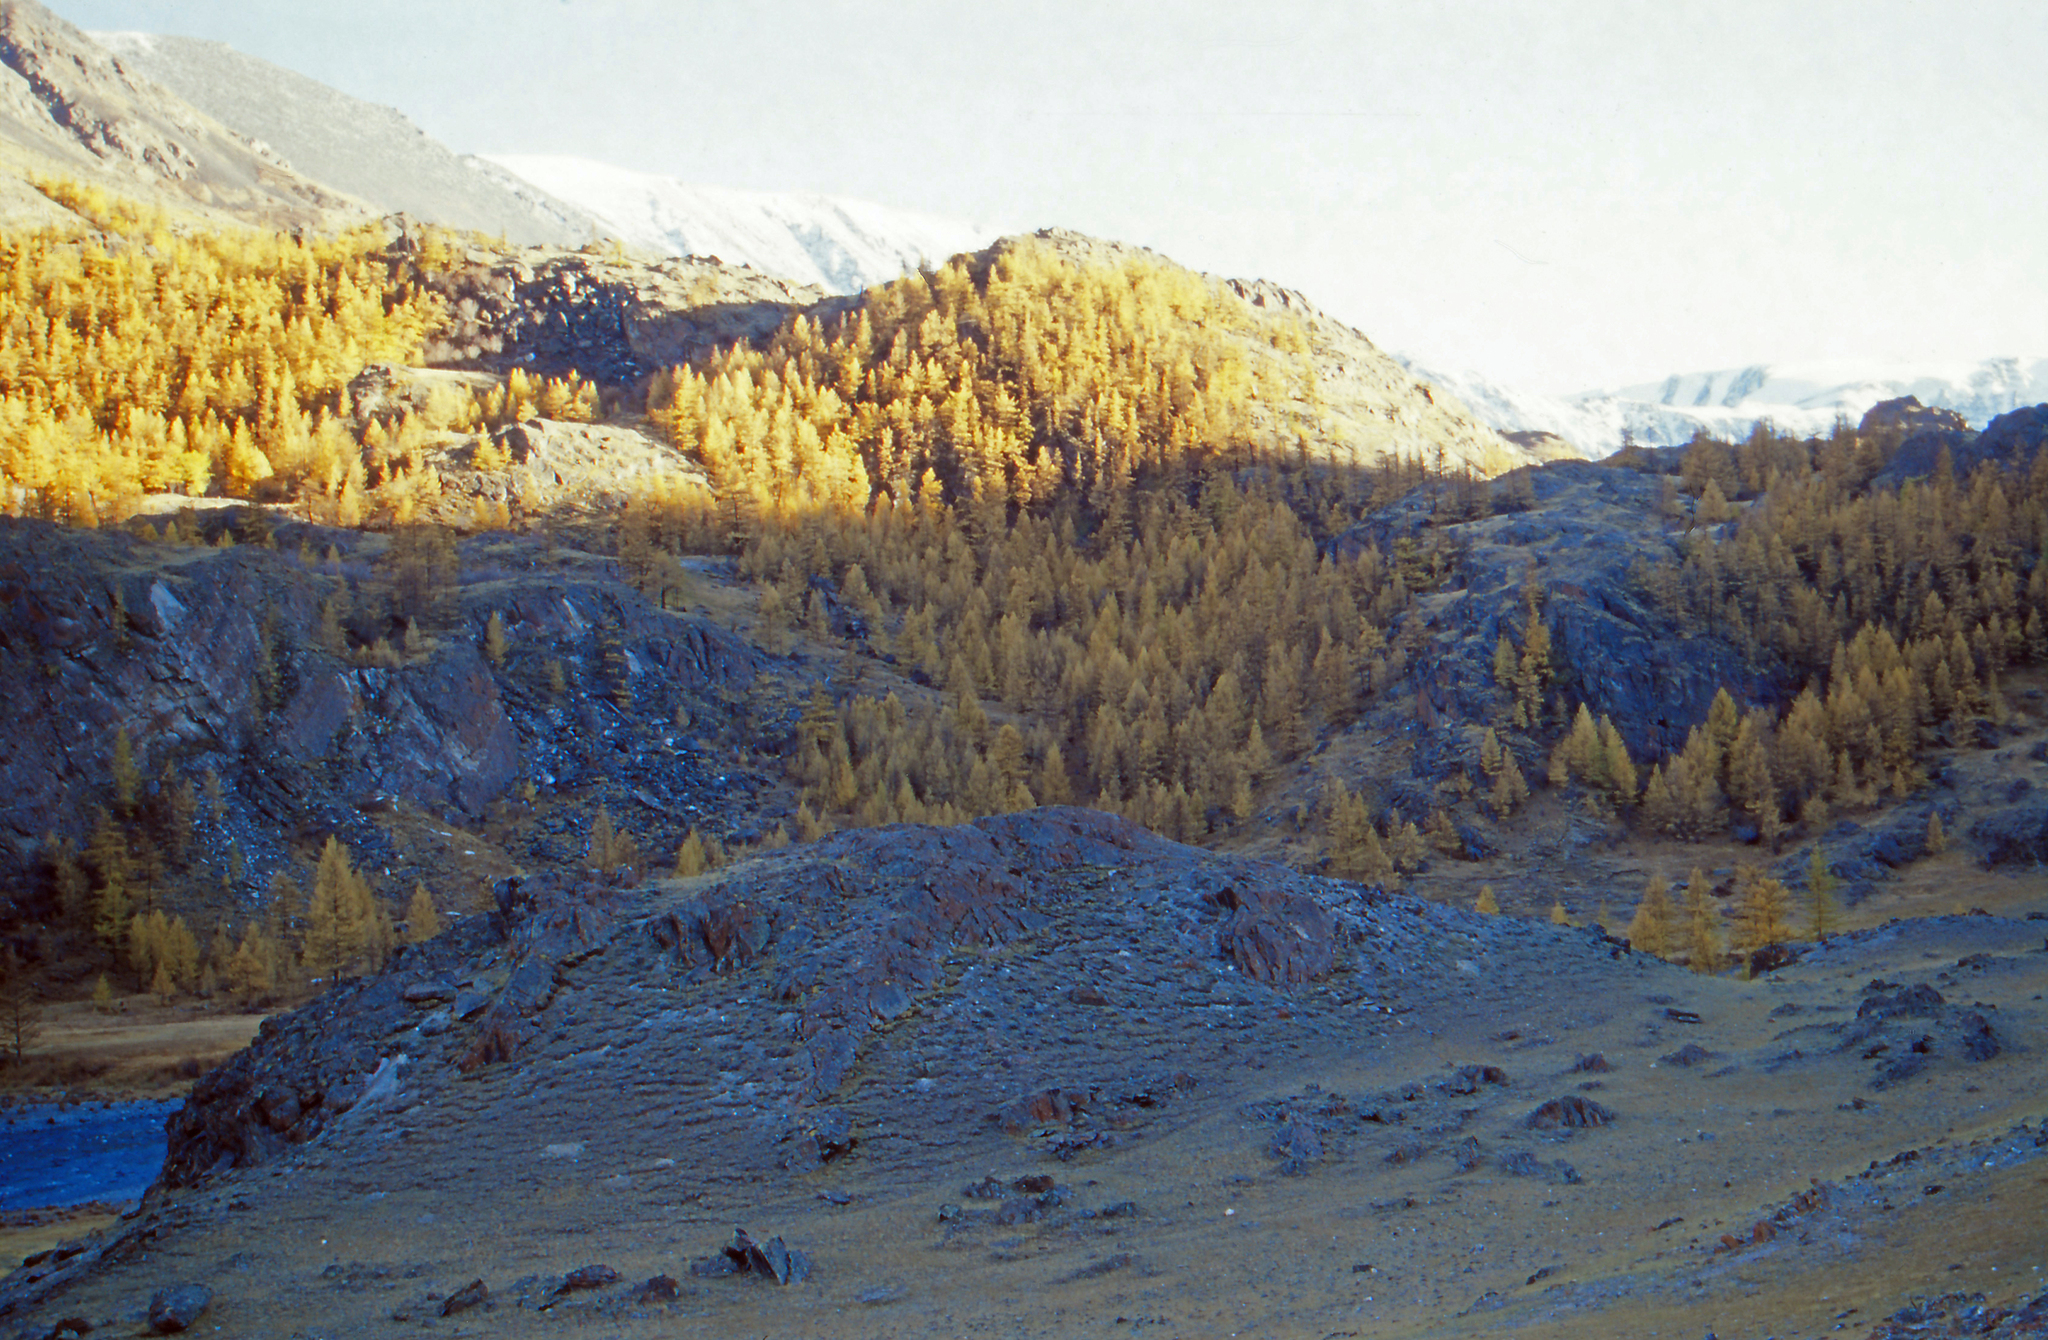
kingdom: Plantae
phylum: Tracheophyta
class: Pinopsida
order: Pinales
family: Pinaceae
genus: Larix
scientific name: Larix sibirica
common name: Siberian larch
